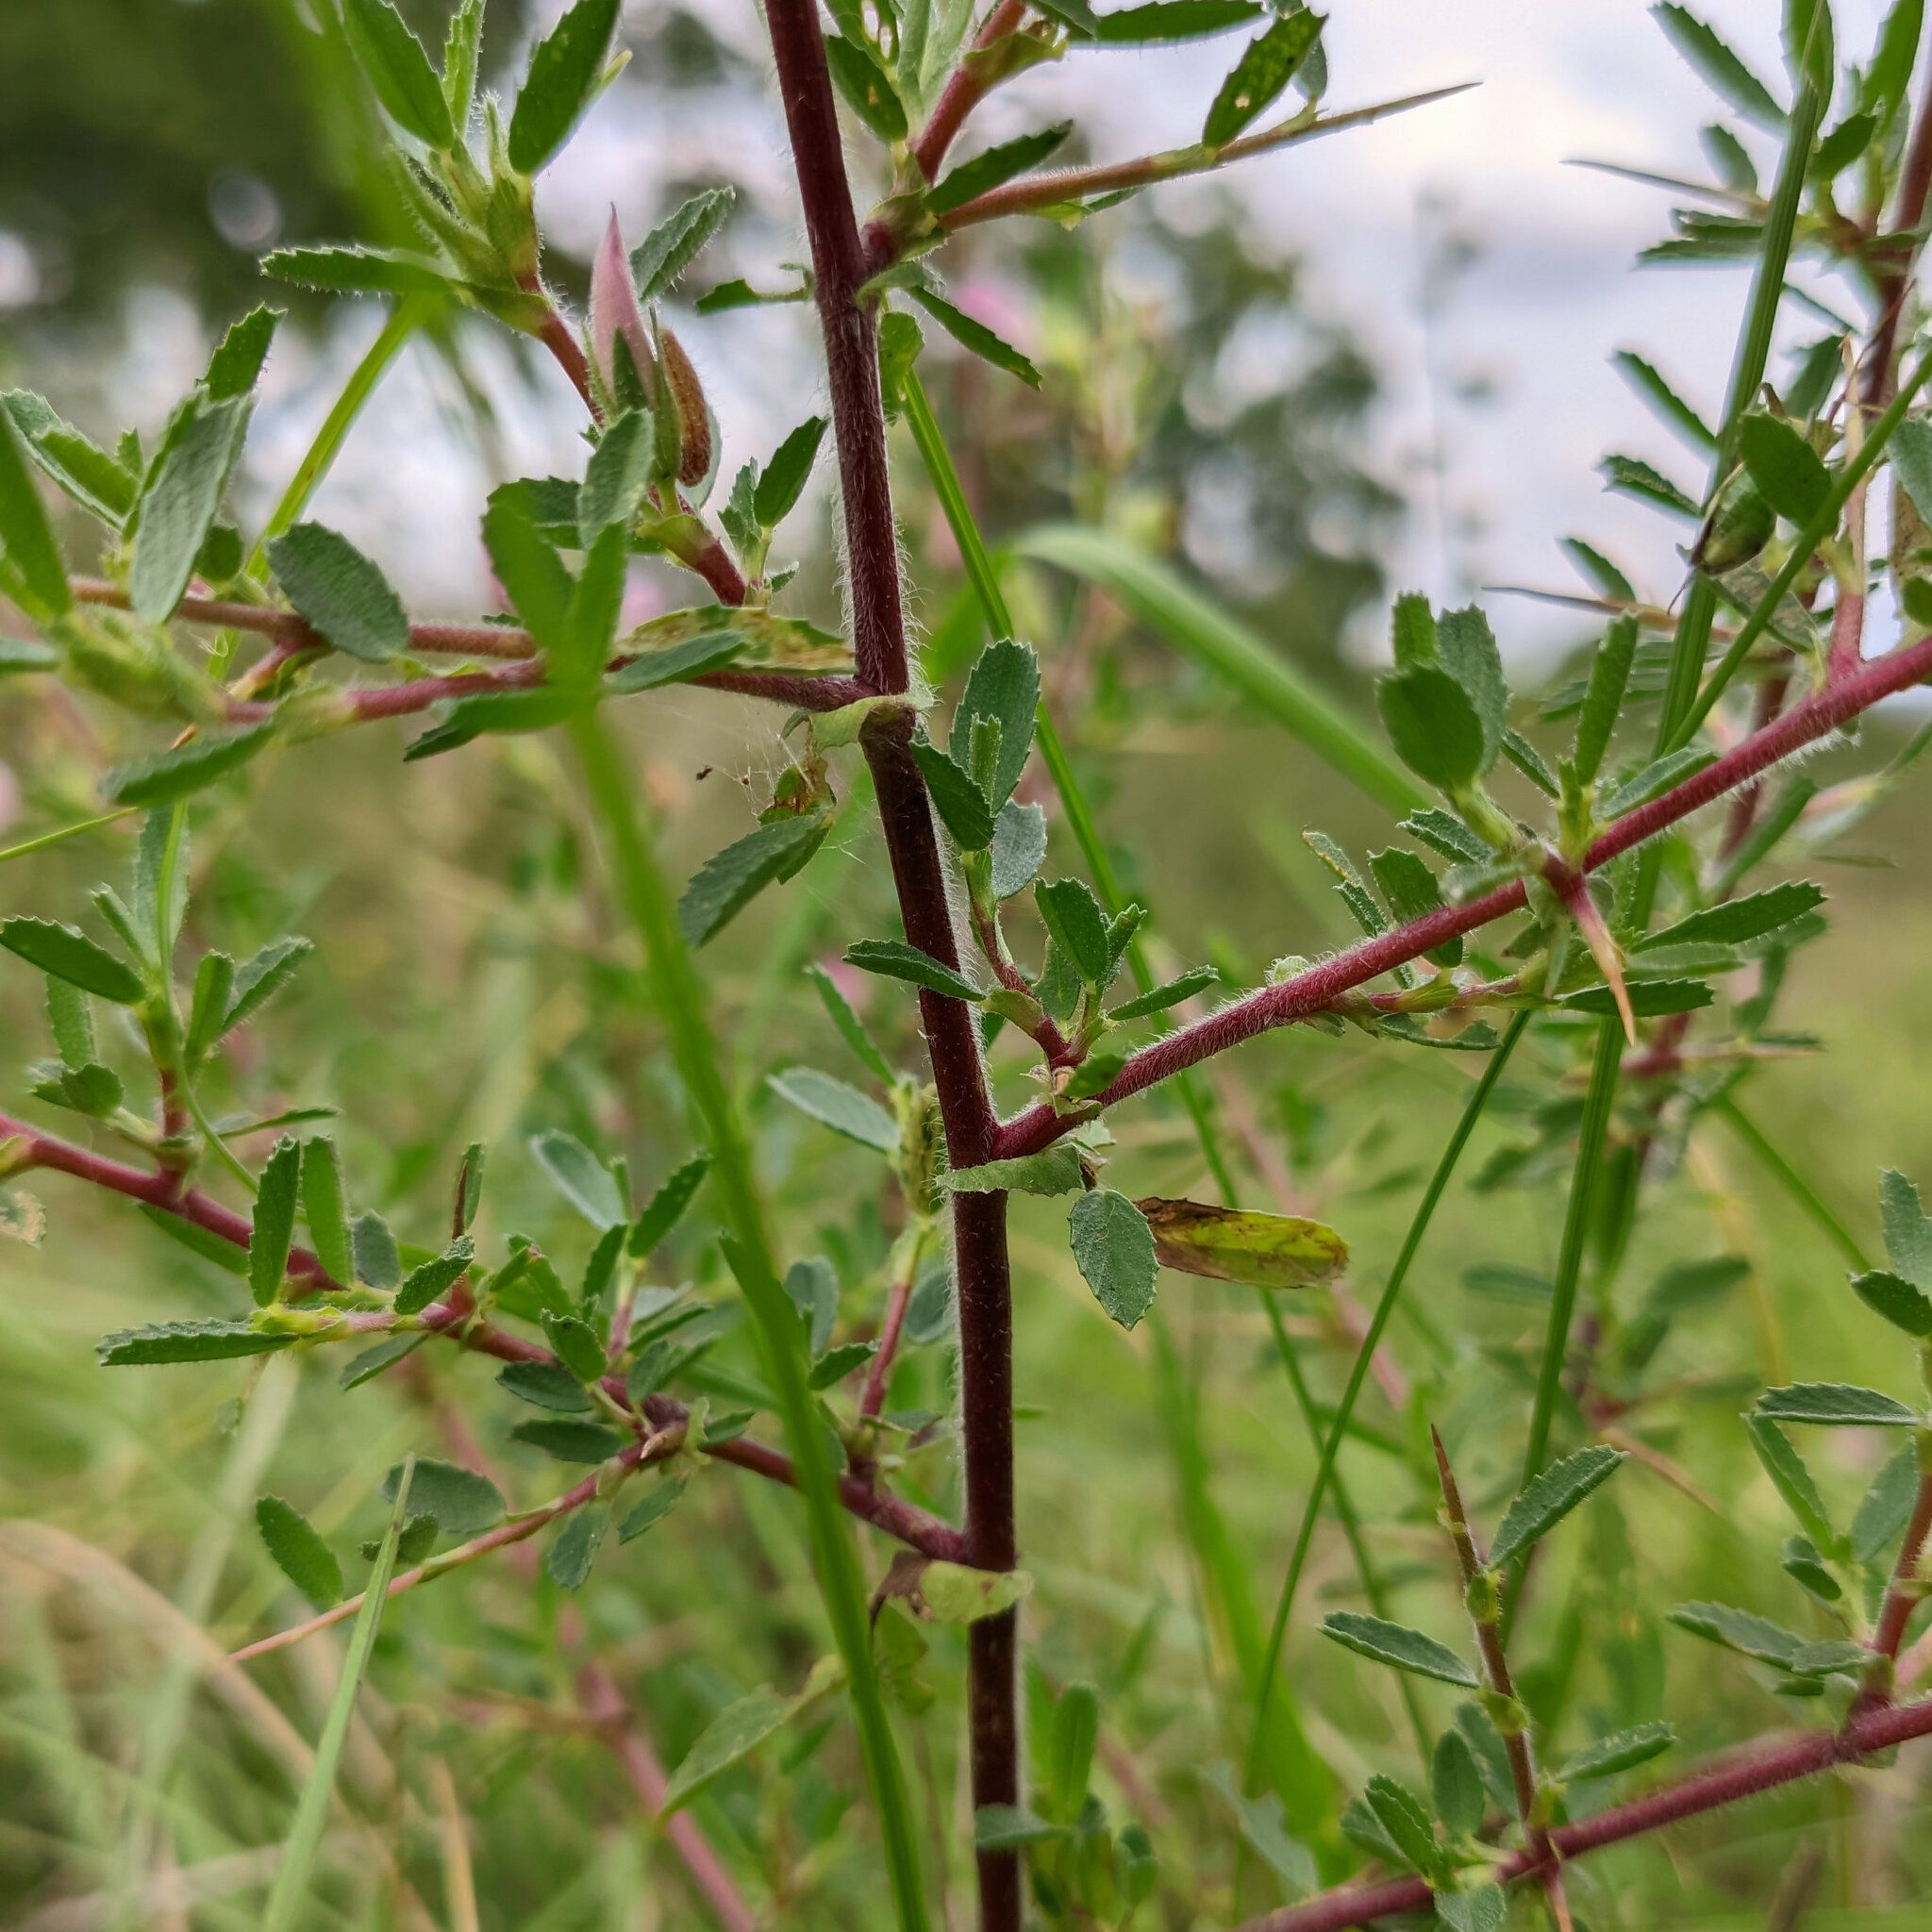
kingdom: Plantae
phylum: Tracheophyta
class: Magnoliopsida
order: Fabales
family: Fabaceae
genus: Ononis
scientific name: Ononis spinosa
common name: Spiny restharrow
